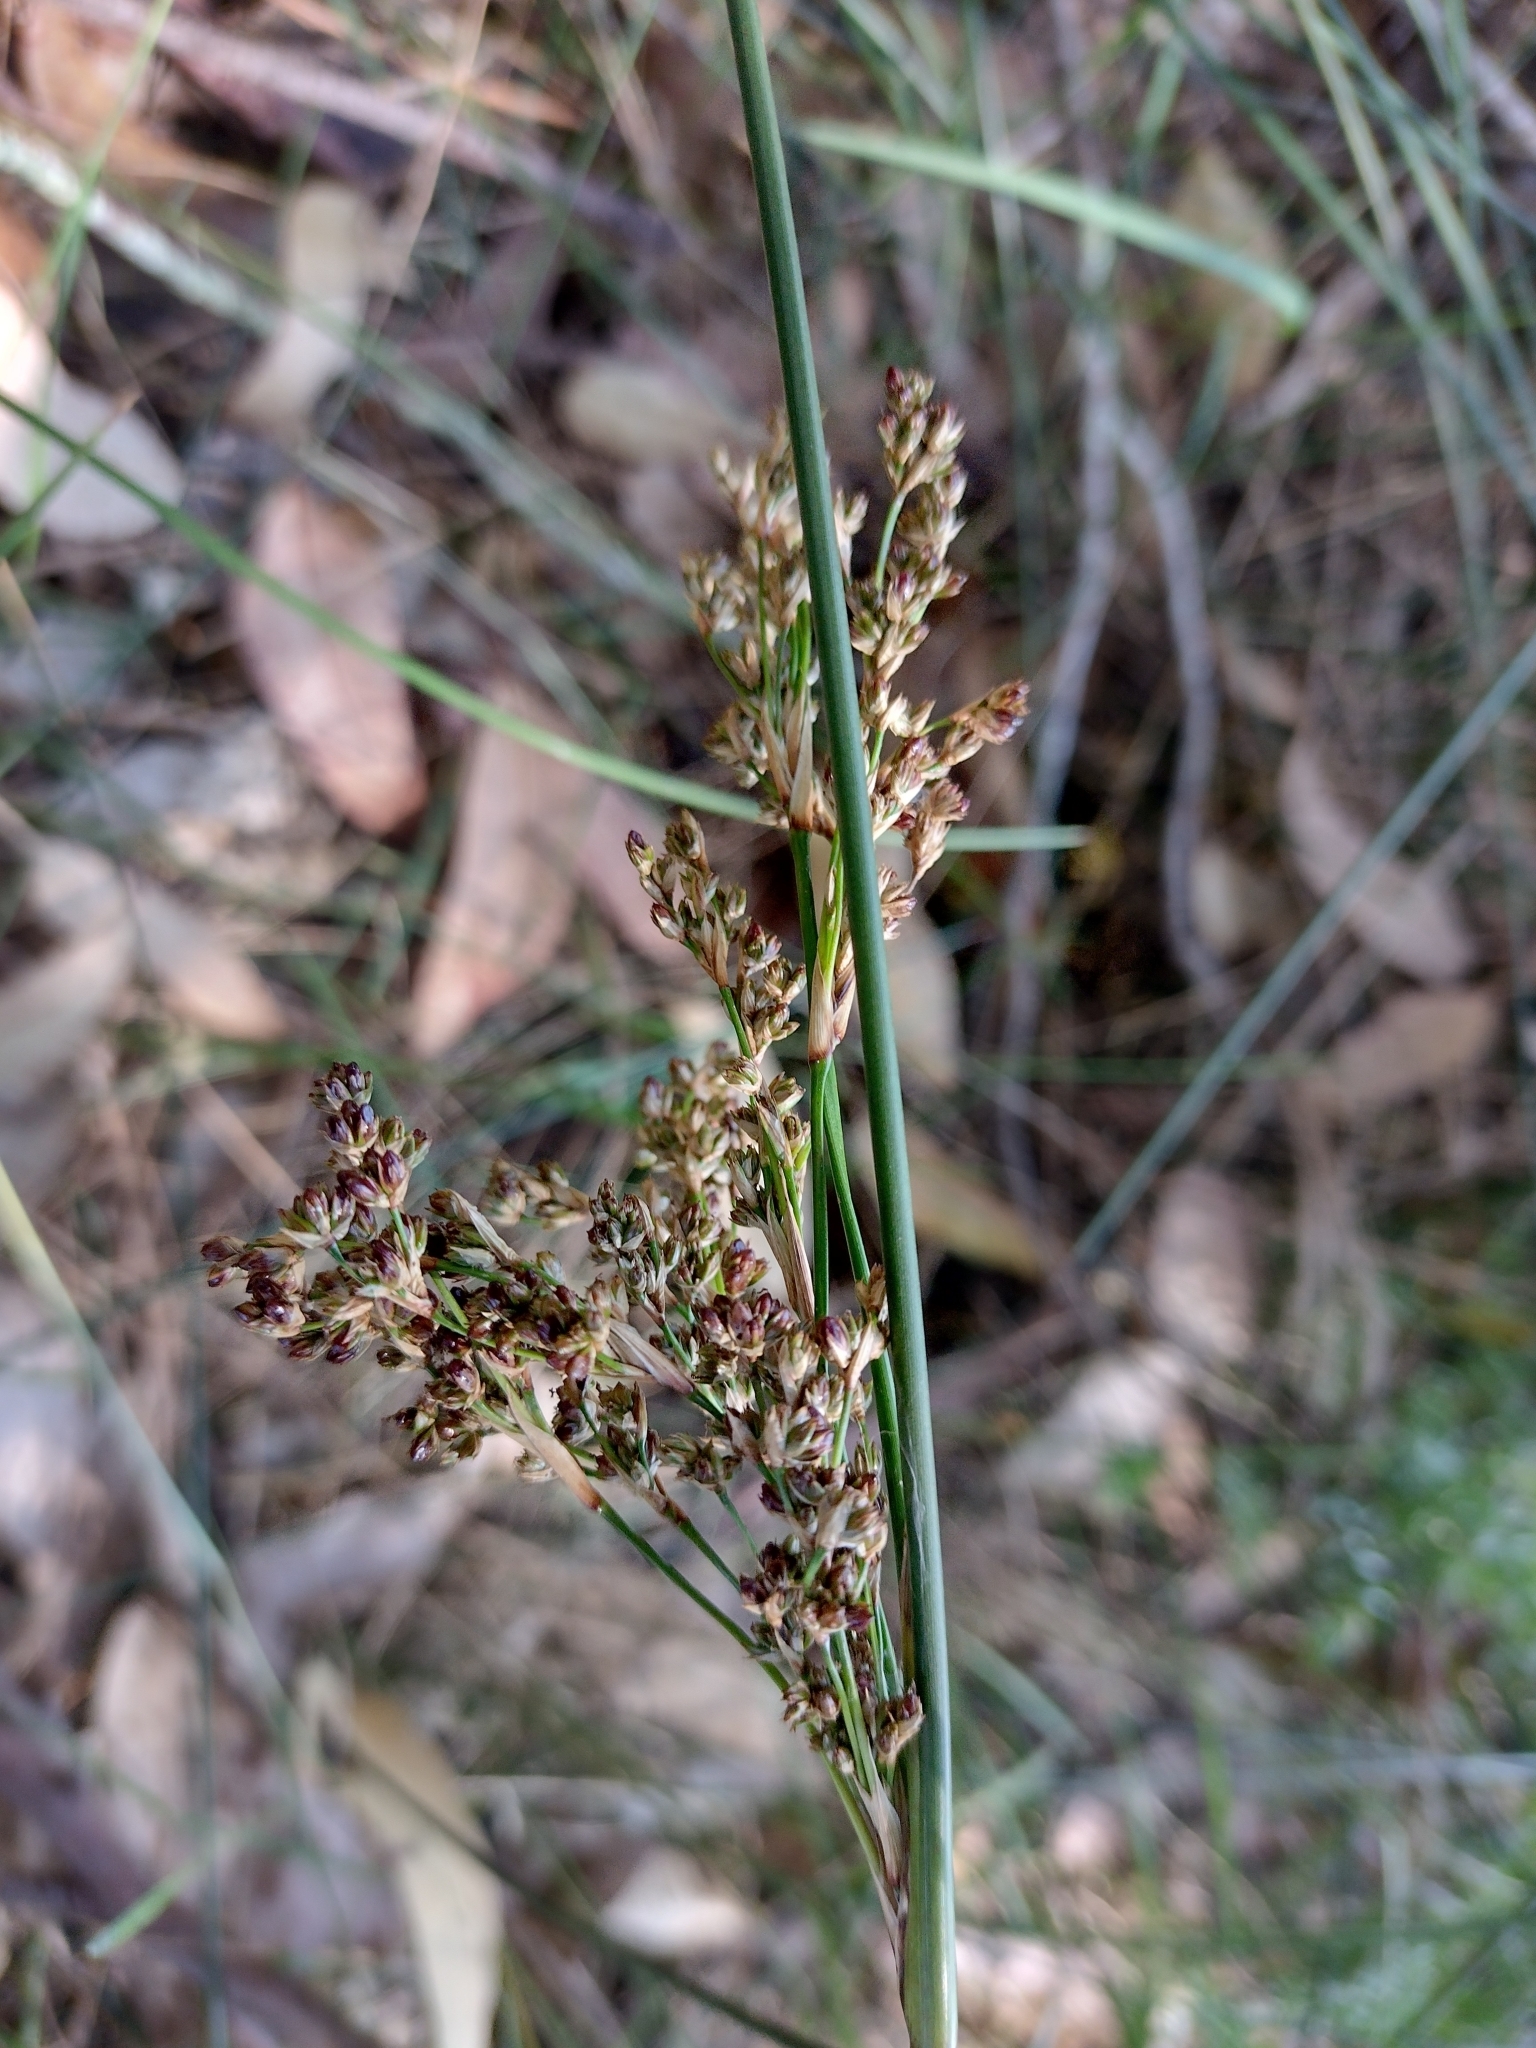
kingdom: Plantae
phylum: Tracheophyta
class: Liliopsida
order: Poales
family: Juncaceae
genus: Juncus
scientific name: Juncus kraussii
